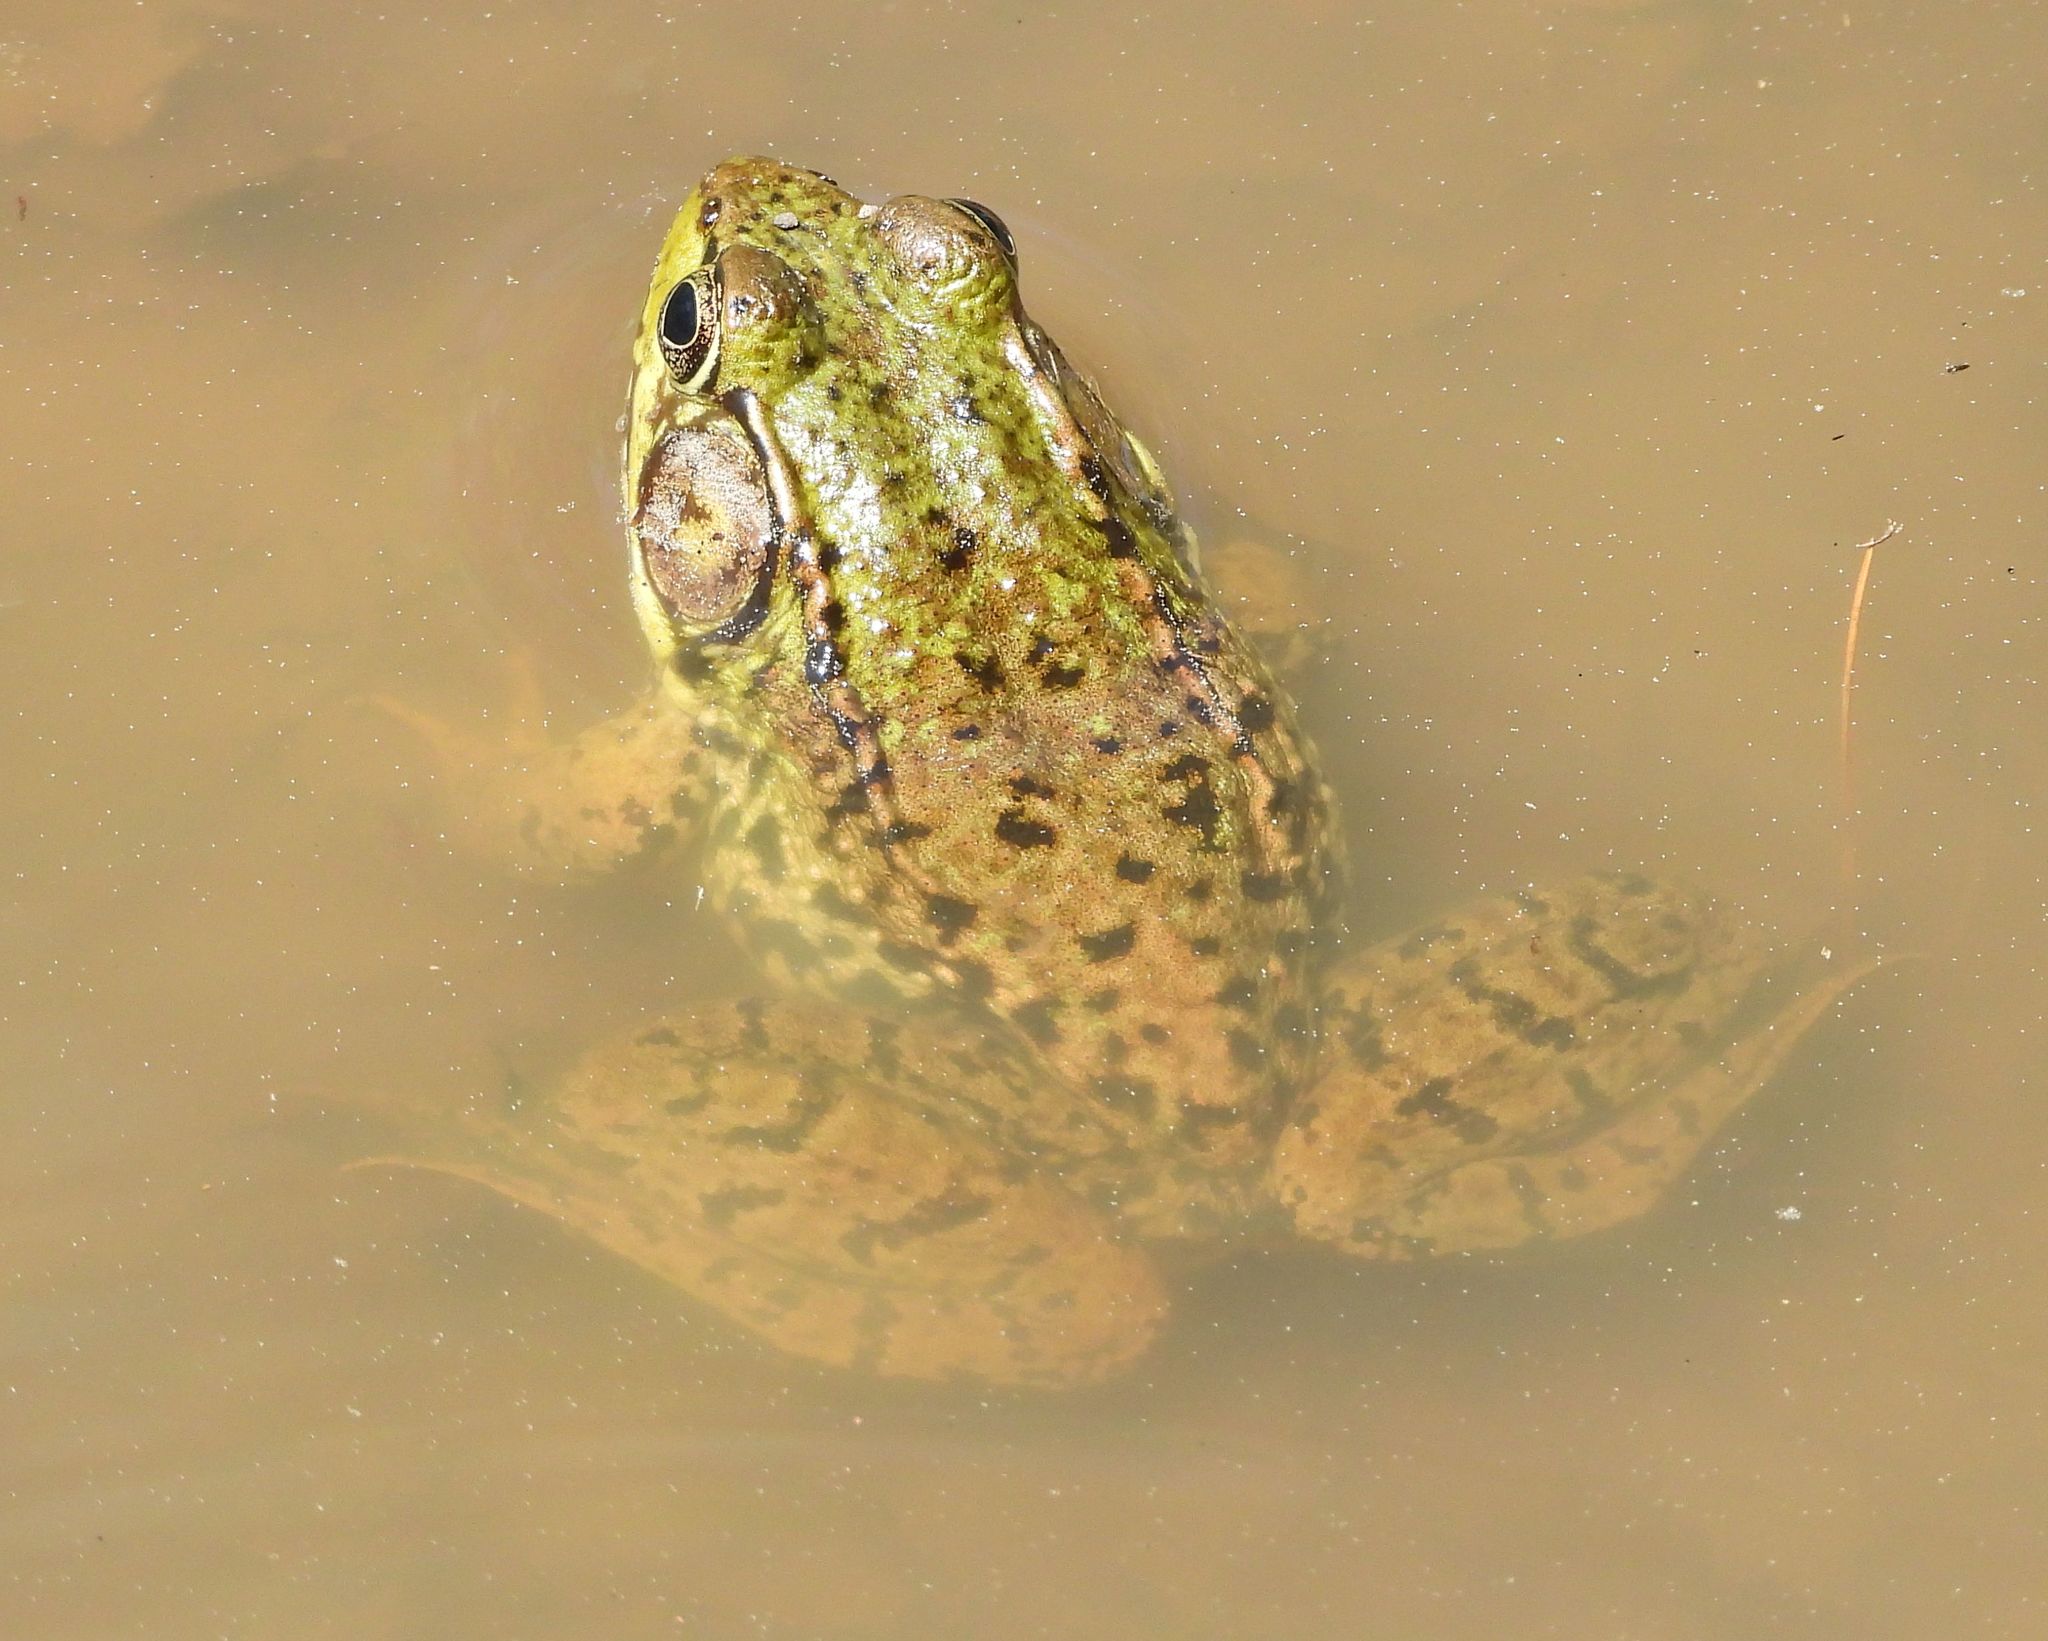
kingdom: Animalia
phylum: Chordata
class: Amphibia
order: Anura
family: Ranidae
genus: Lithobates
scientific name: Lithobates clamitans
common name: Green frog
